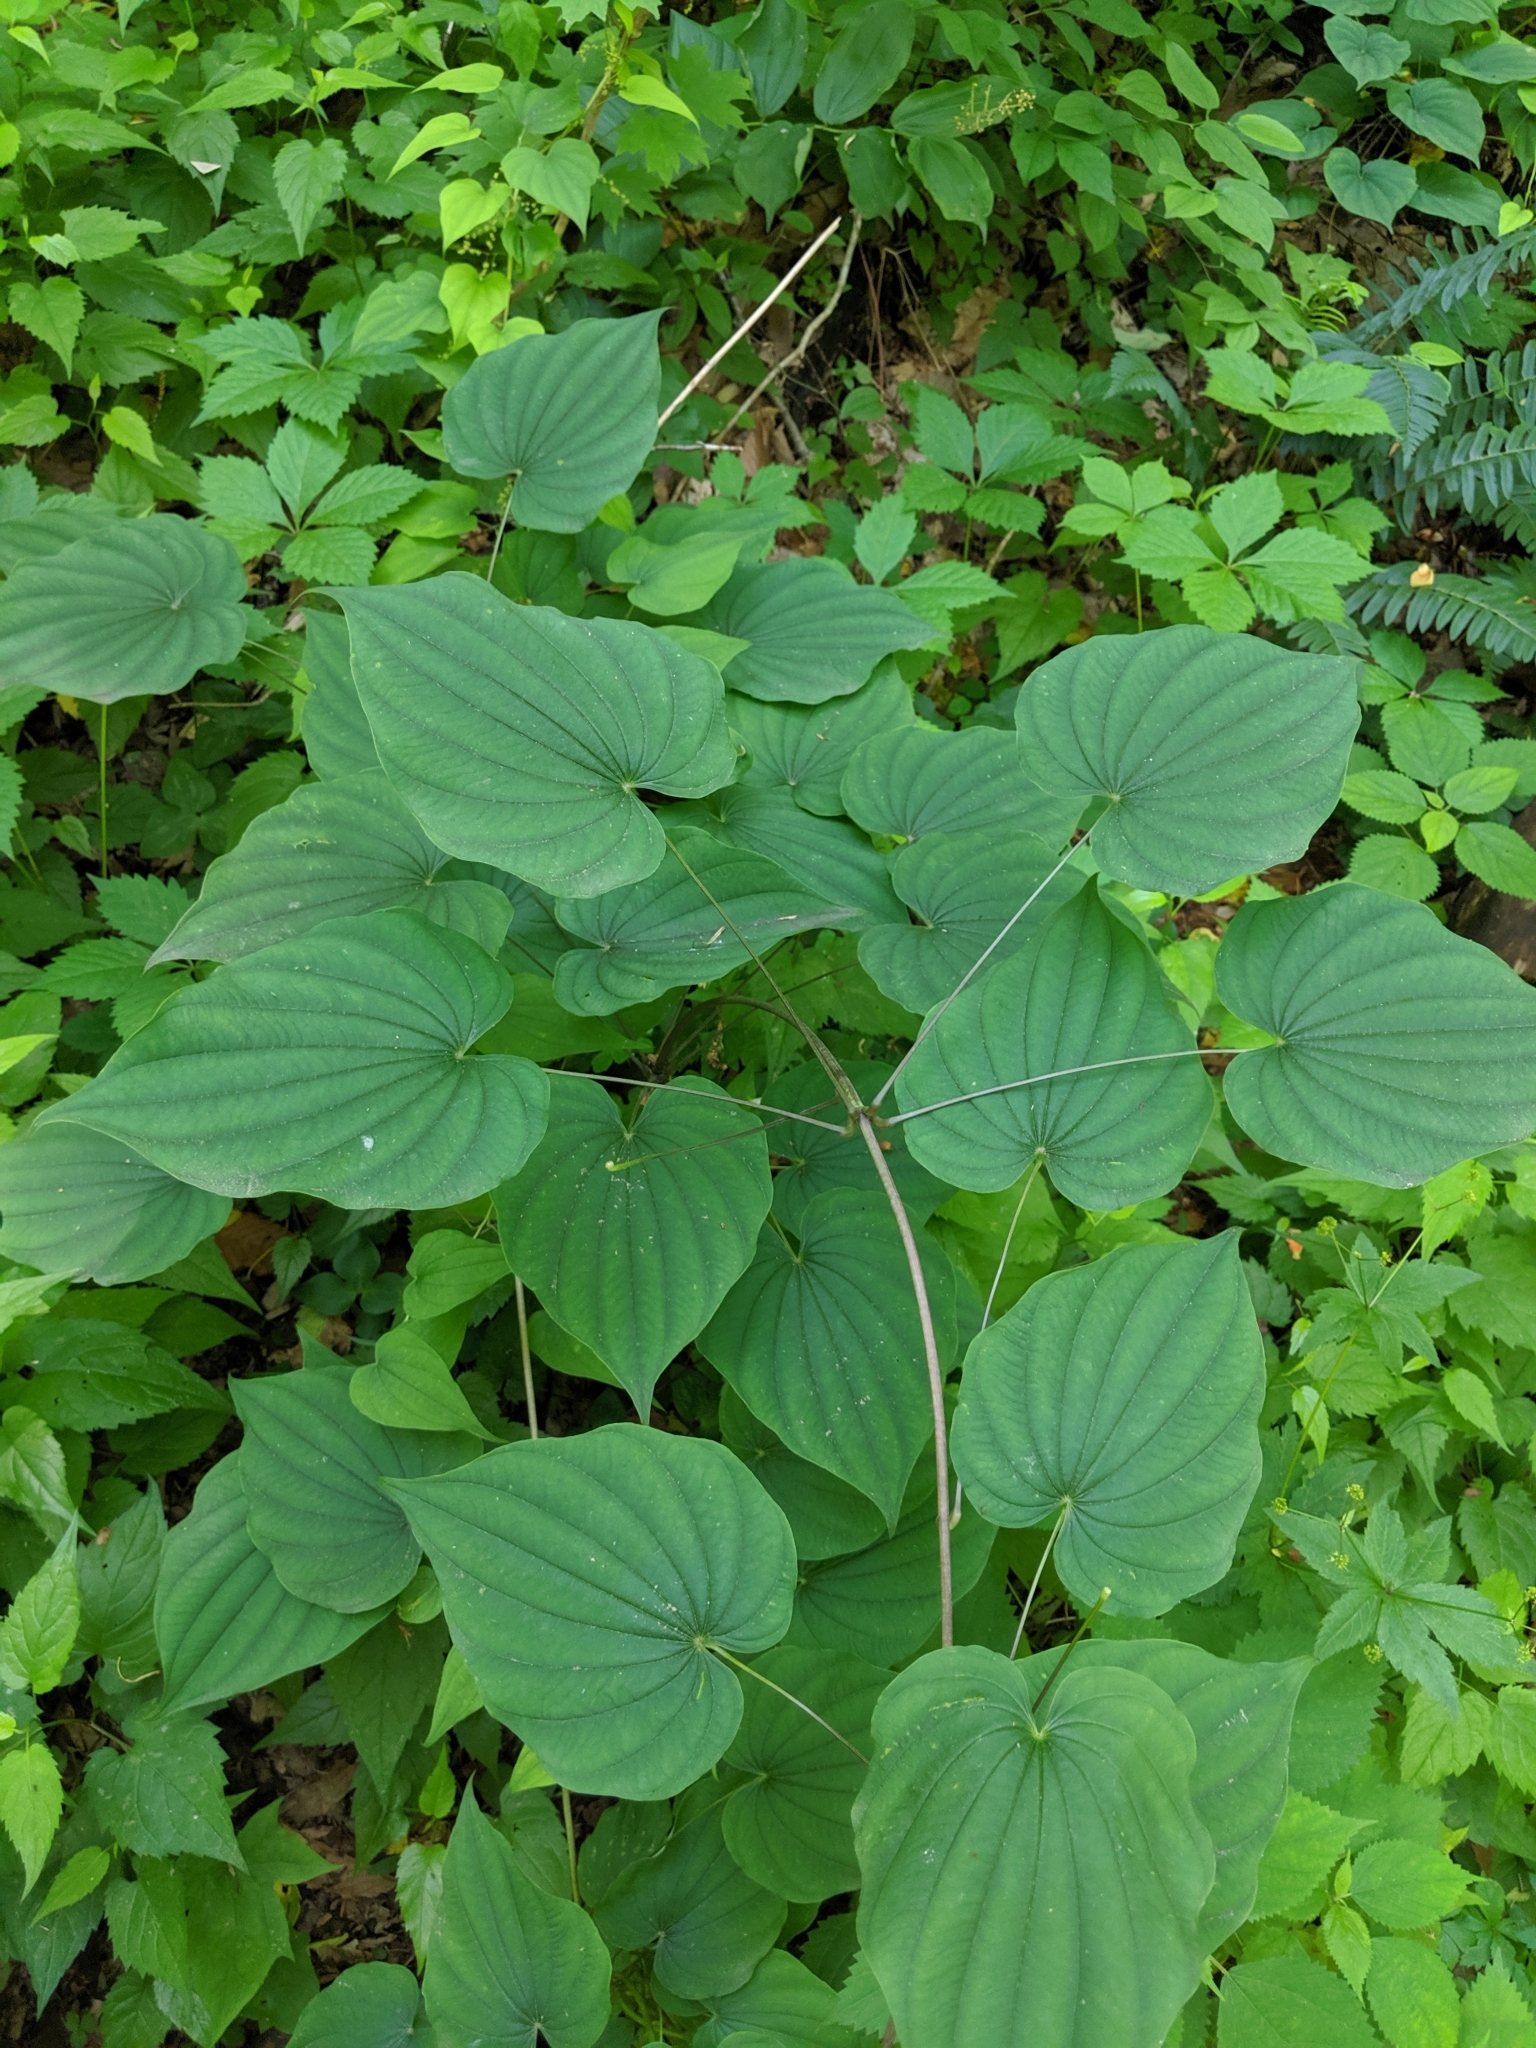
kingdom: Plantae
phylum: Tracheophyta
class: Liliopsida
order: Dioscoreales
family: Dioscoreaceae
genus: Dioscorea
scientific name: Dioscorea villosa
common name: Wild yam
